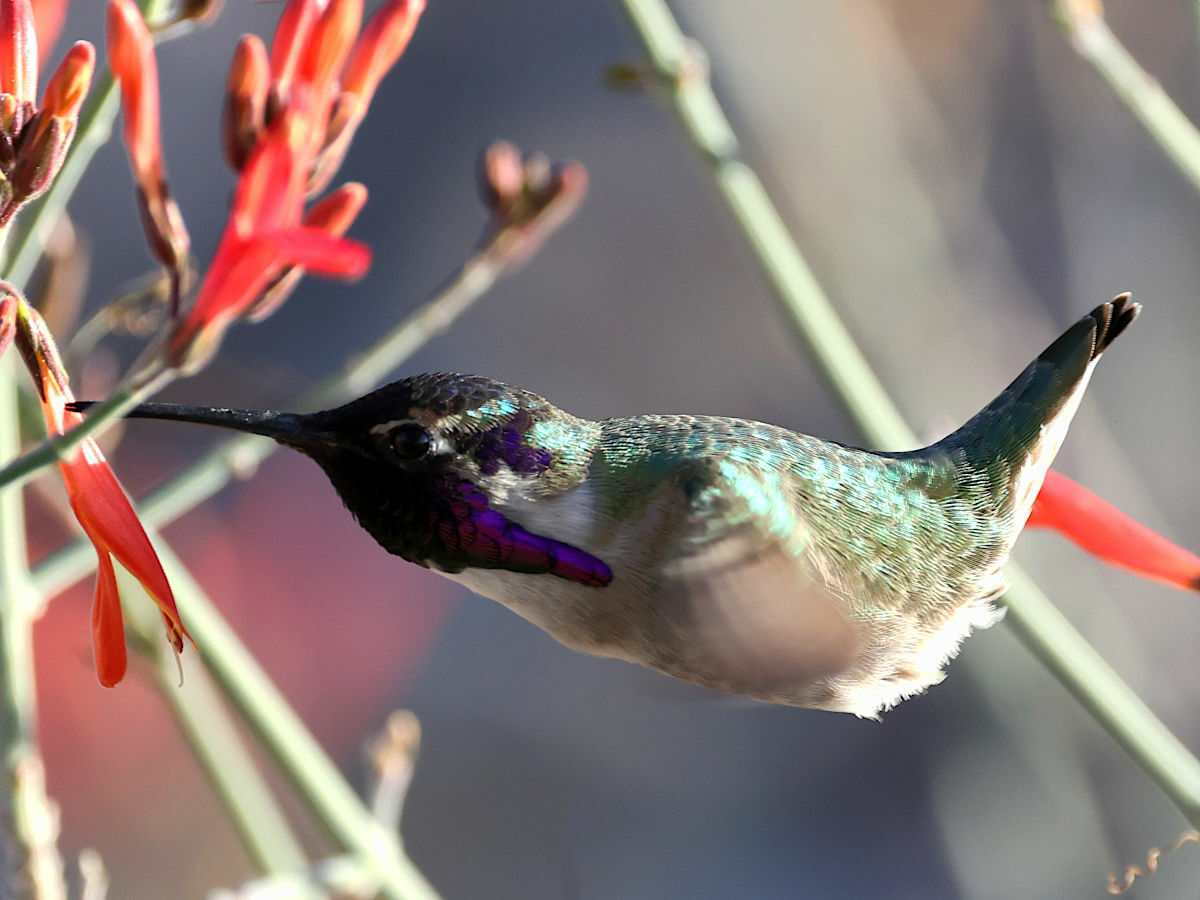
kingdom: Animalia
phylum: Chordata
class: Aves
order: Apodiformes
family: Trochilidae
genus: Calypte
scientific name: Calypte costae
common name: Costa's hummingbird
